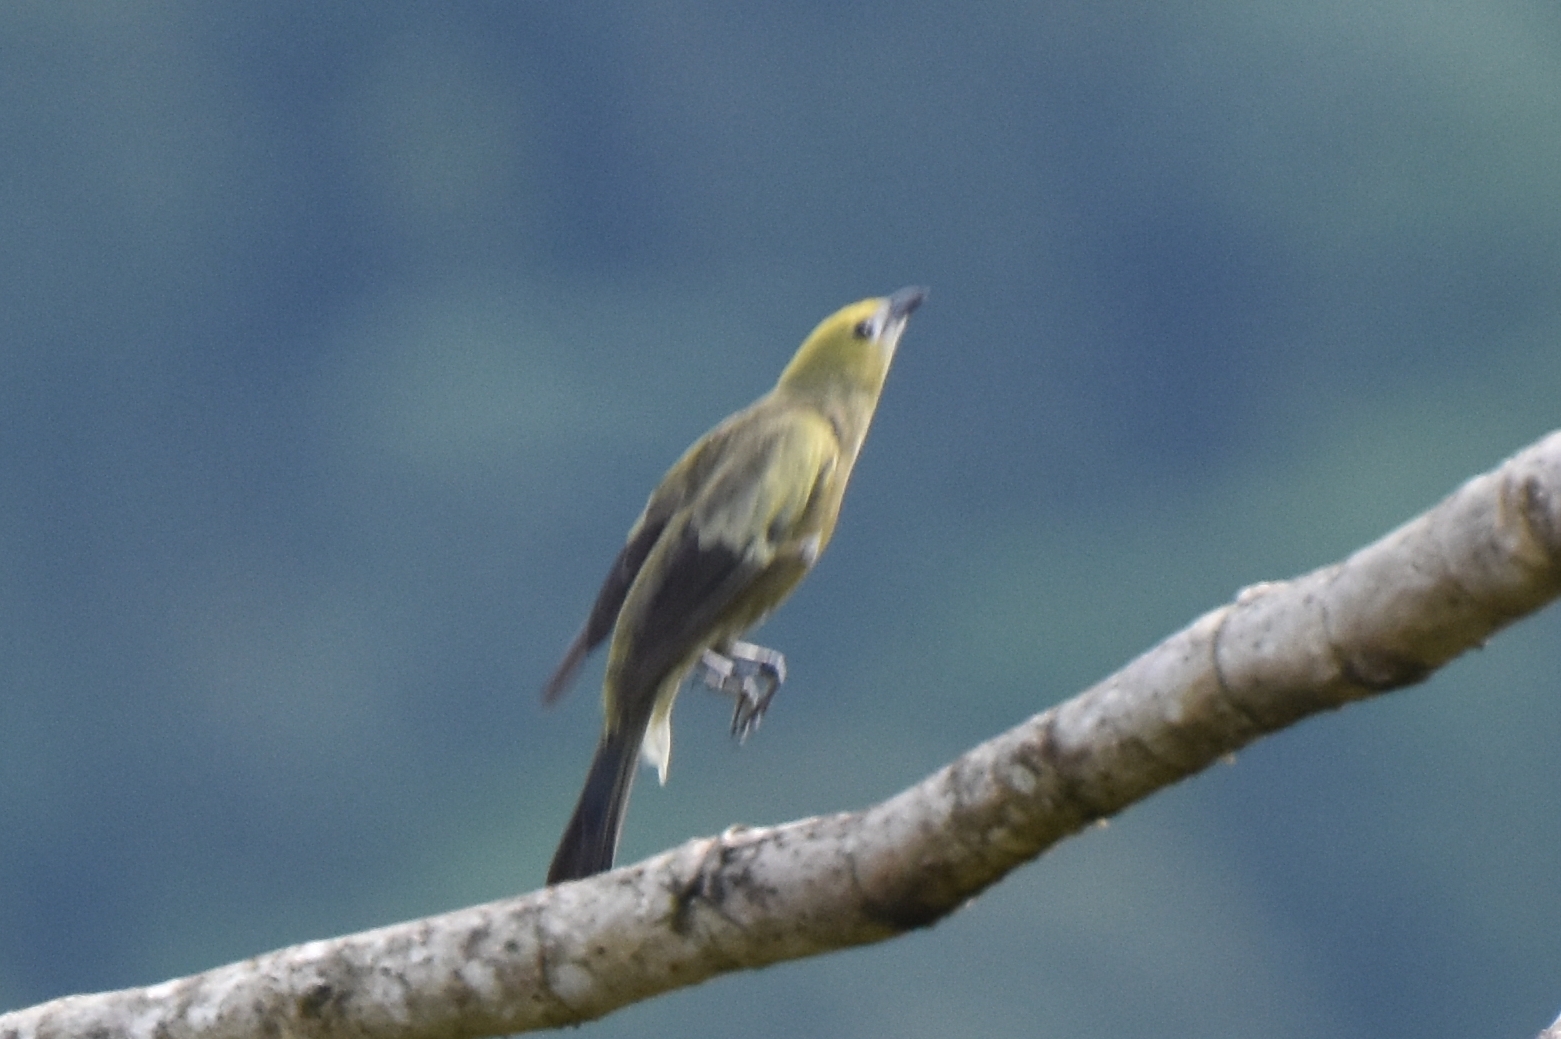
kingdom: Animalia
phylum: Chordata
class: Aves
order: Passeriformes
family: Thraupidae
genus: Thraupis
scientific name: Thraupis palmarum
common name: Palm tanager
